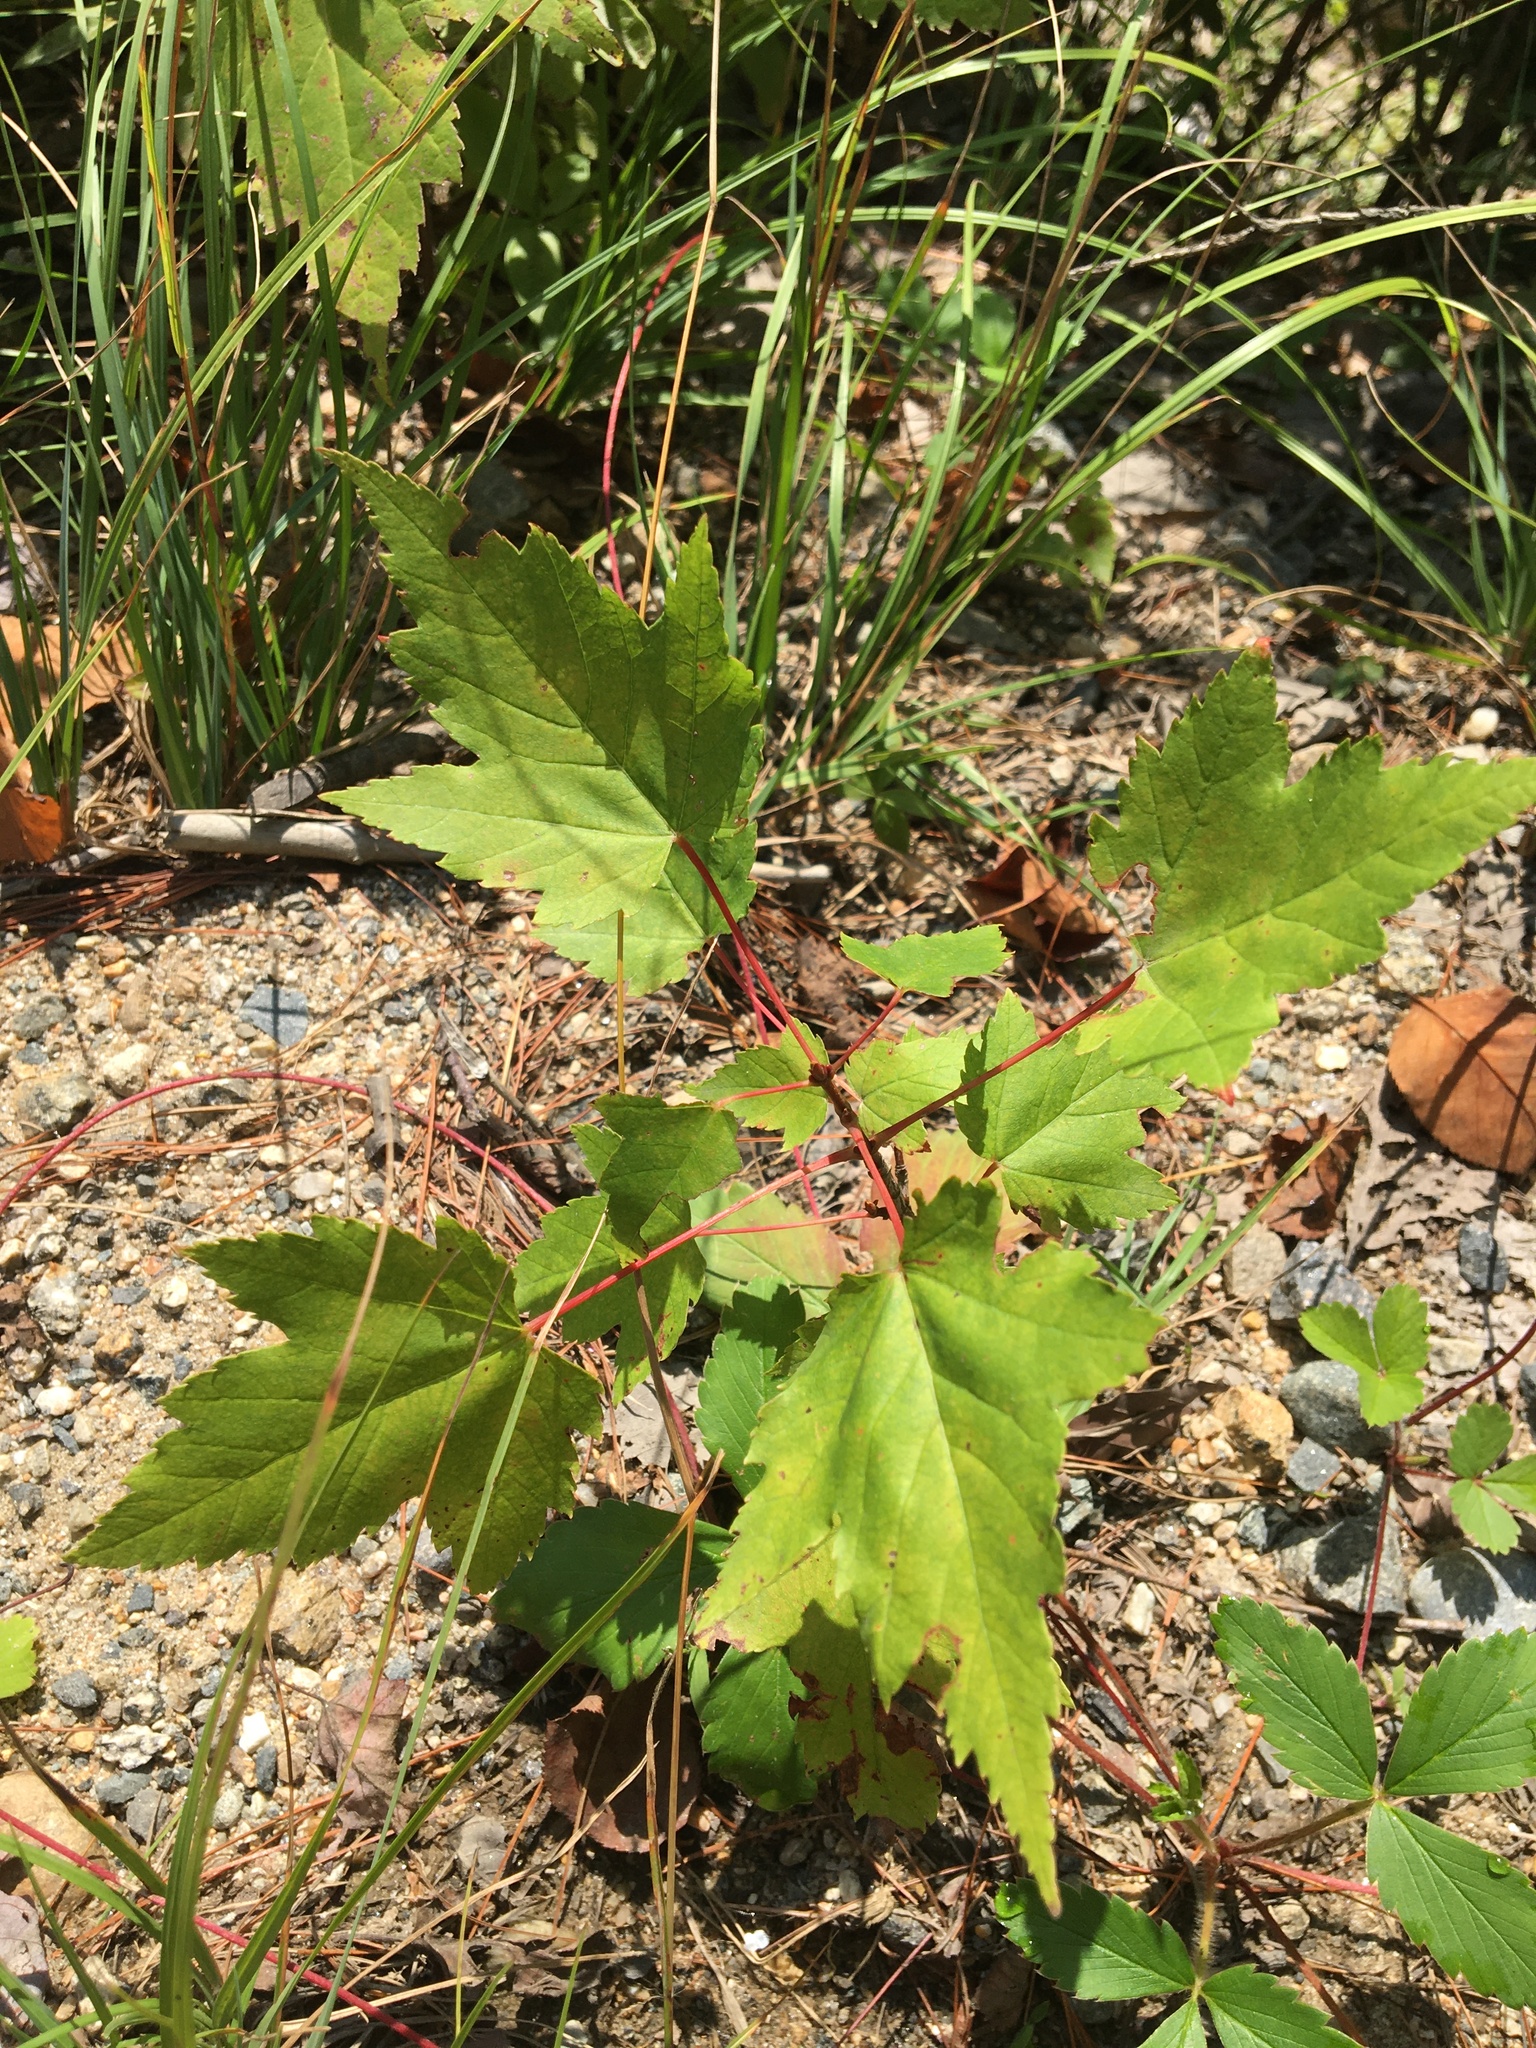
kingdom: Plantae
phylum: Tracheophyta
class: Magnoliopsida
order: Sapindales
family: Sapindaceae
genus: Acer
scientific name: Acer rubrum
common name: Red maple
